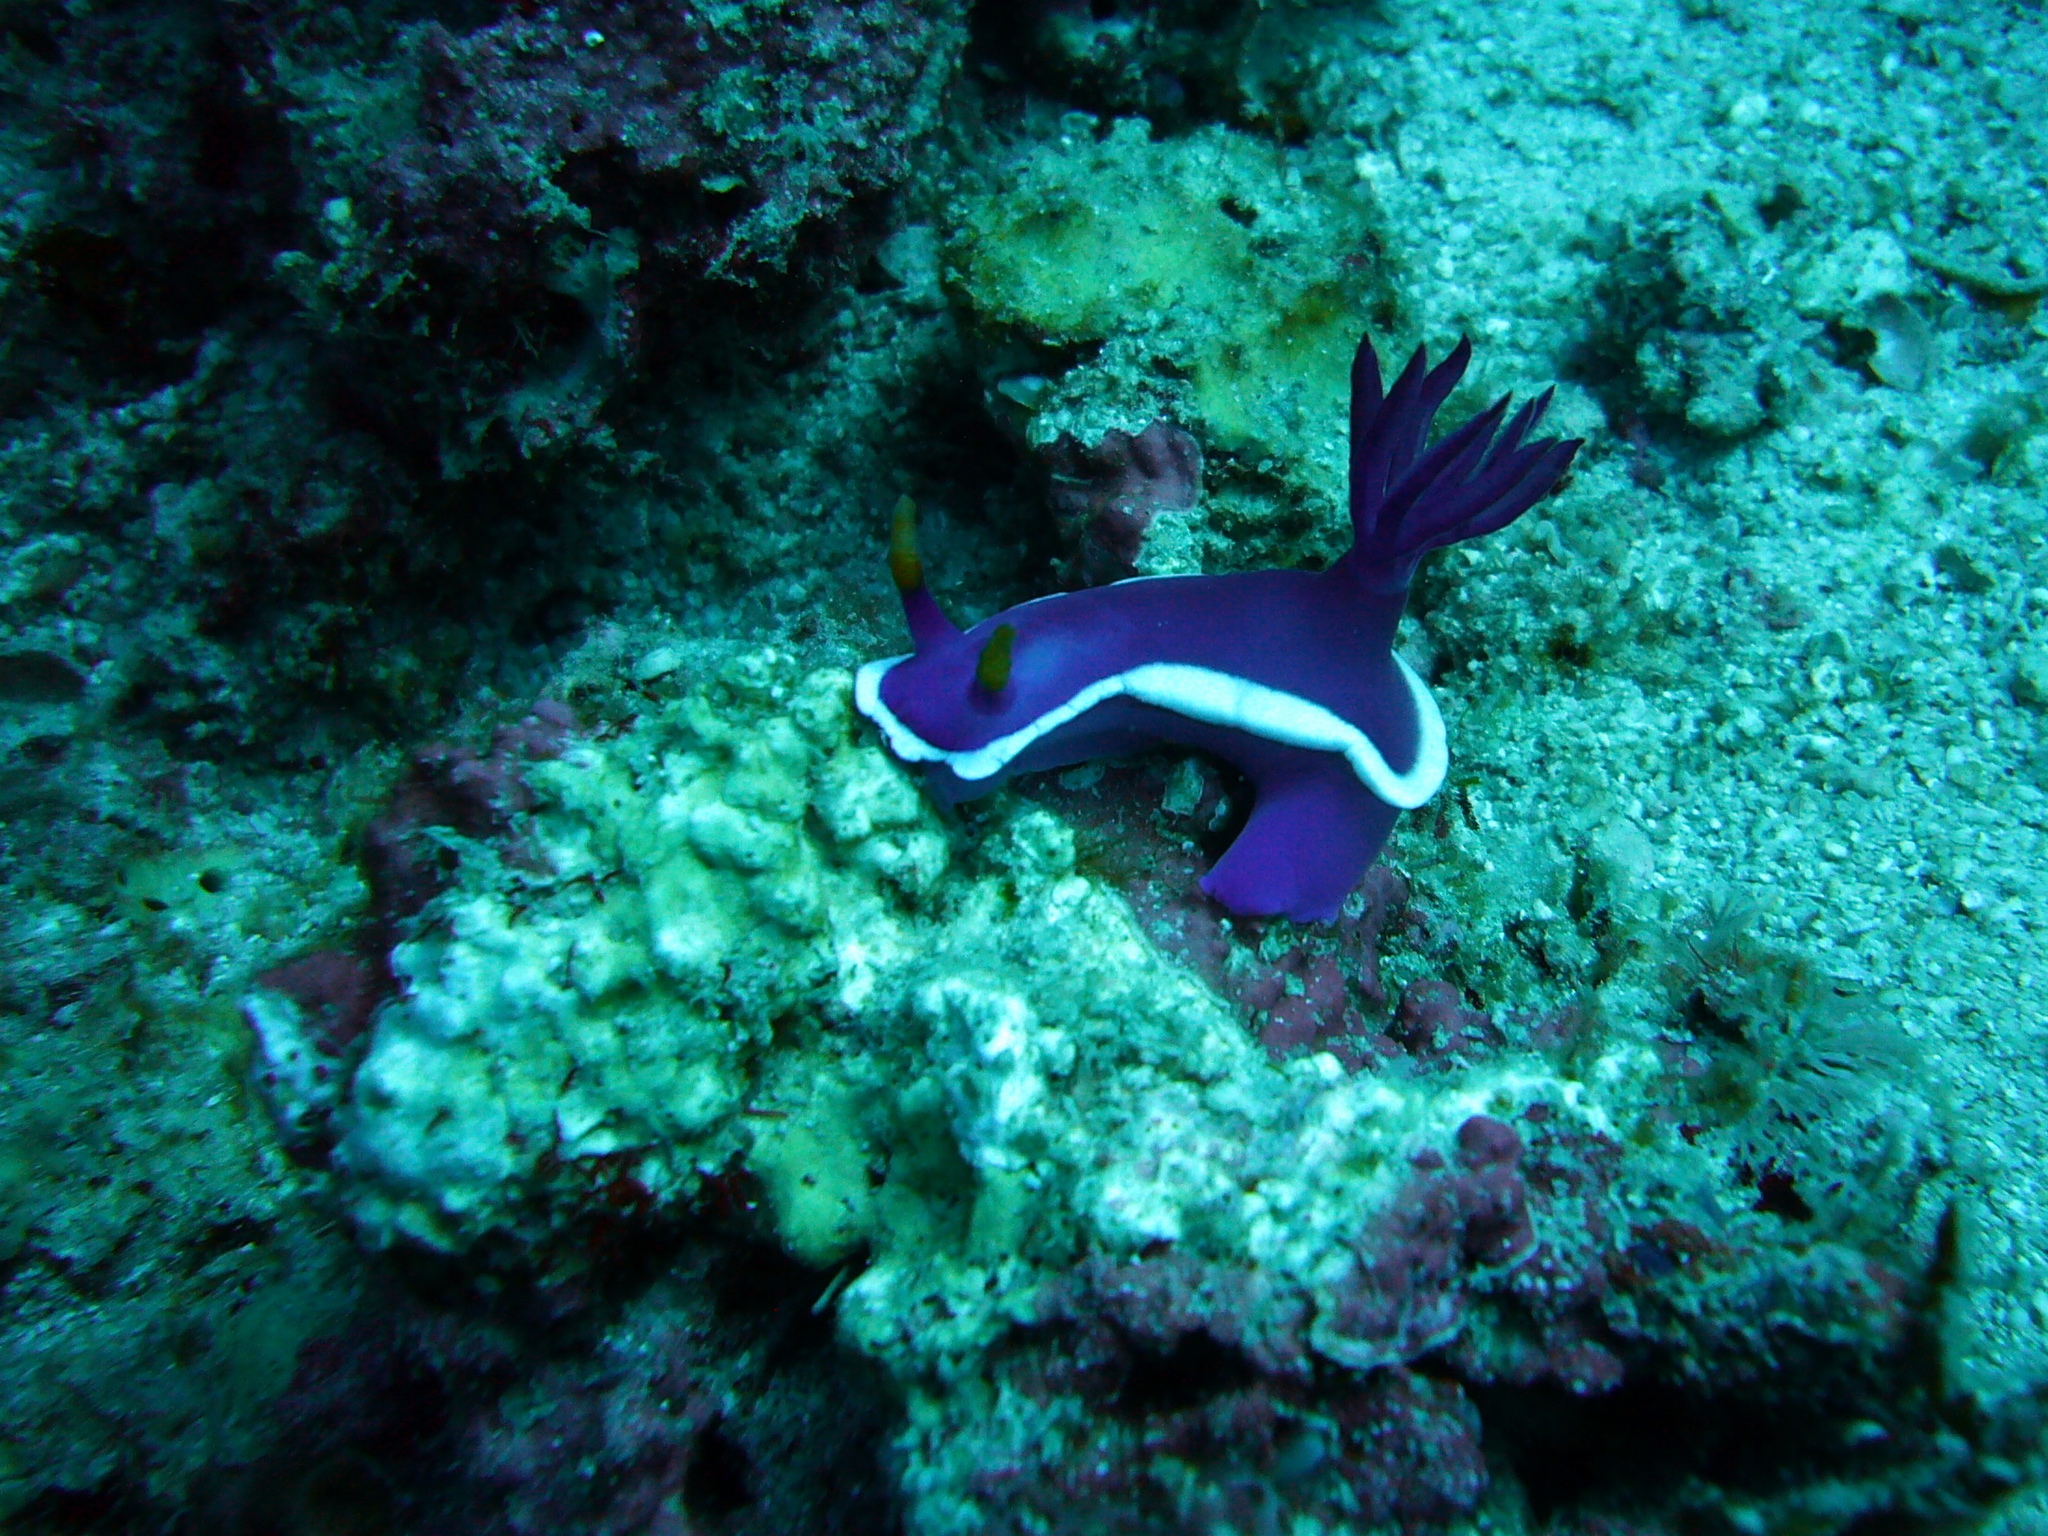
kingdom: Animalia
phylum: Mollusca
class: Gastropoda
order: Nudibranchia
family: Chromodorididae
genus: Hypselodoris
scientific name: Hypselodoris variobranchia
